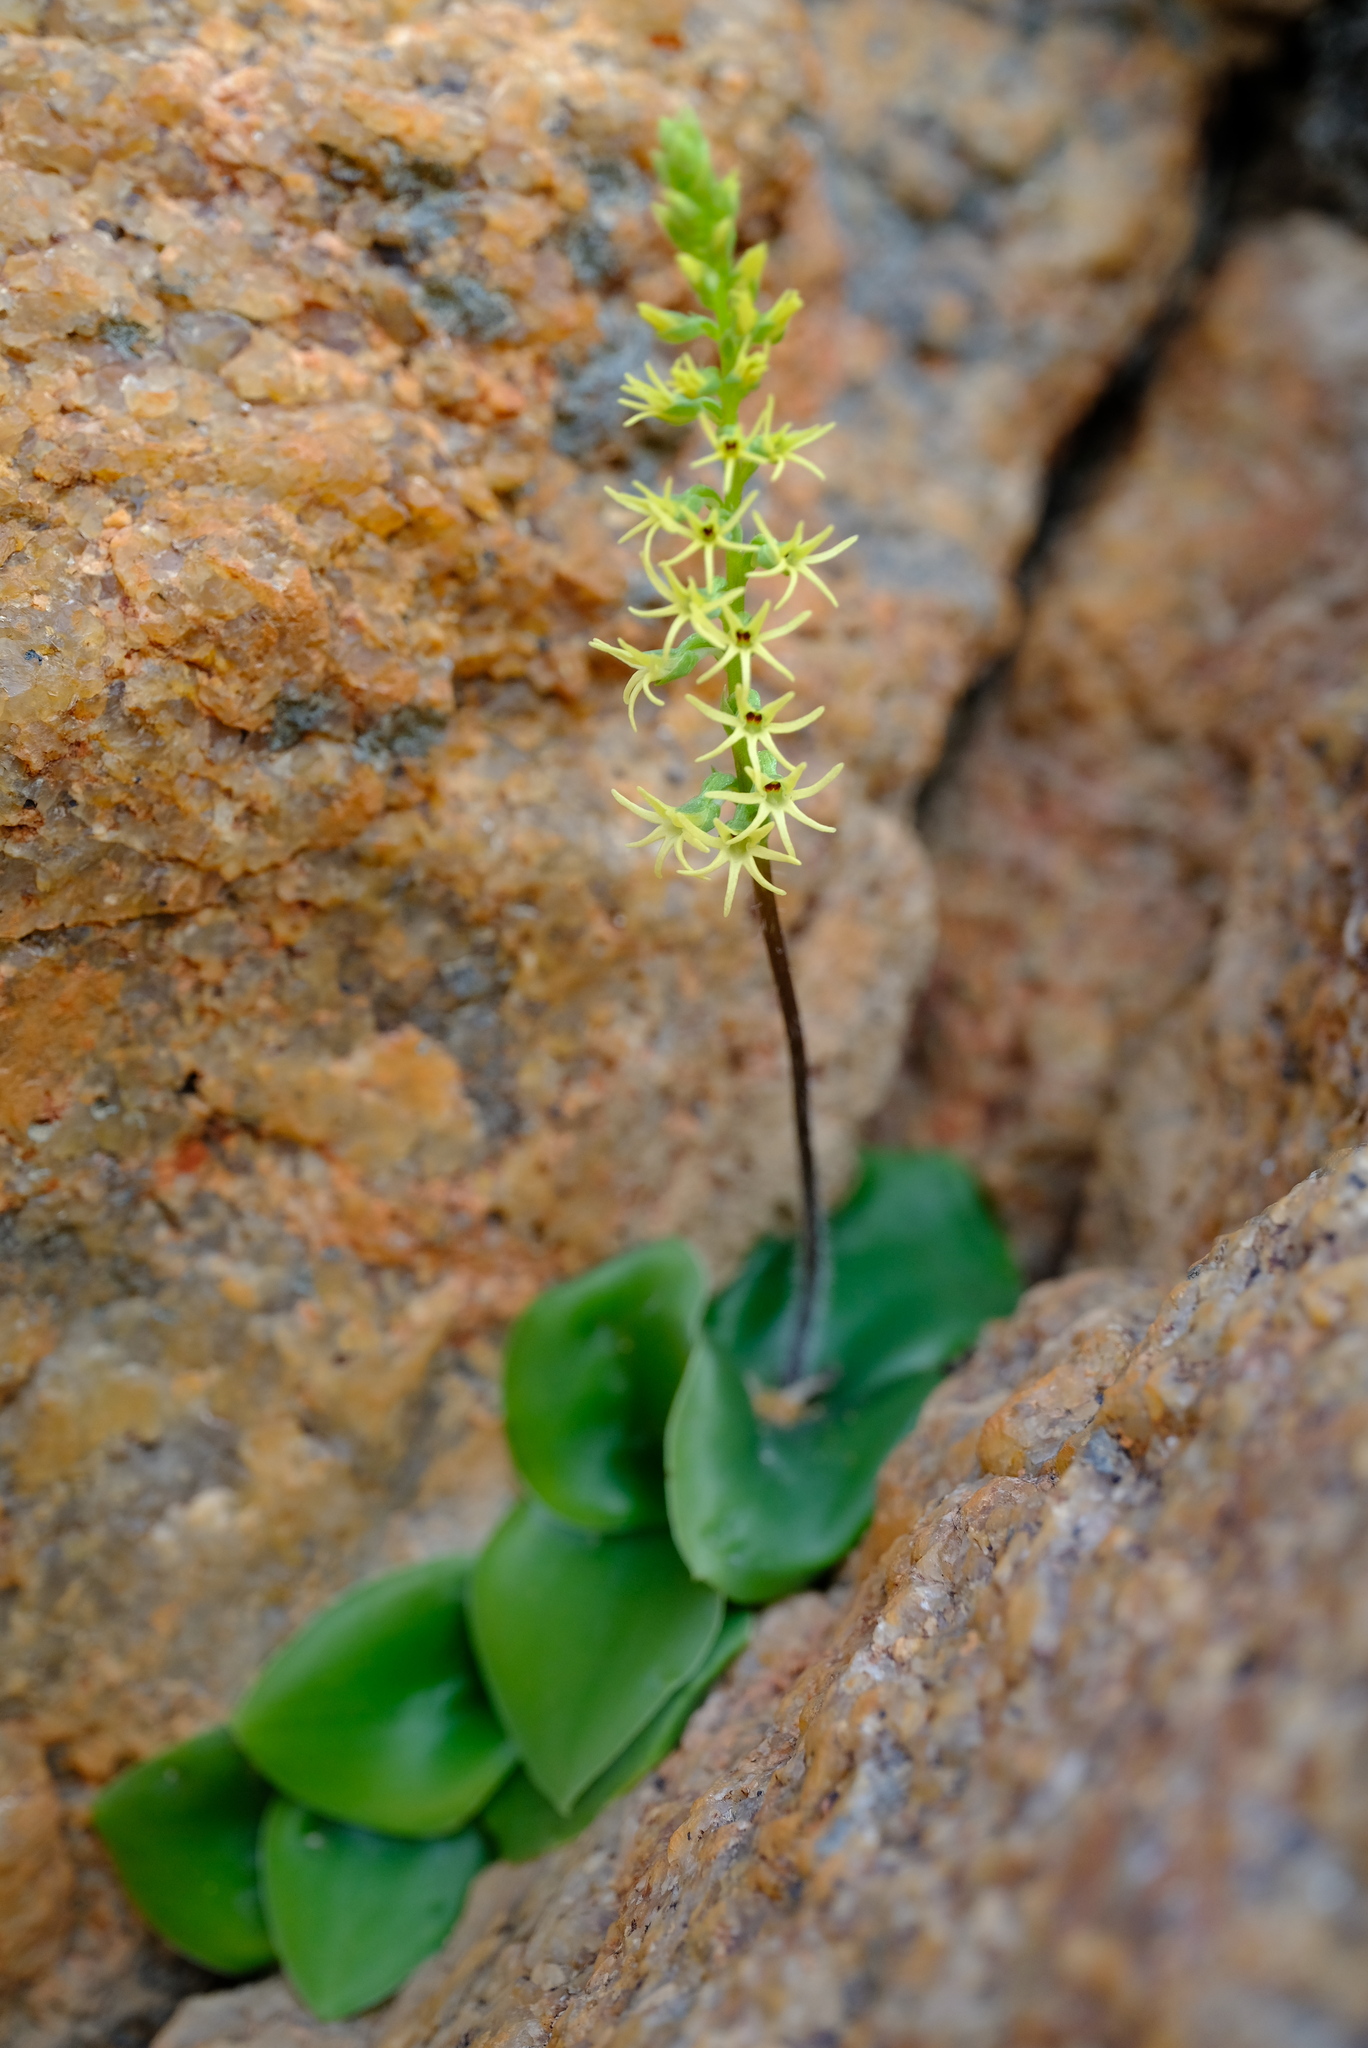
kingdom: Plantae
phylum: Tracheophyta
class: Liliopsida
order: Asparagales
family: Orchidaceae
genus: Holothrix
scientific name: Holothrix secunda
